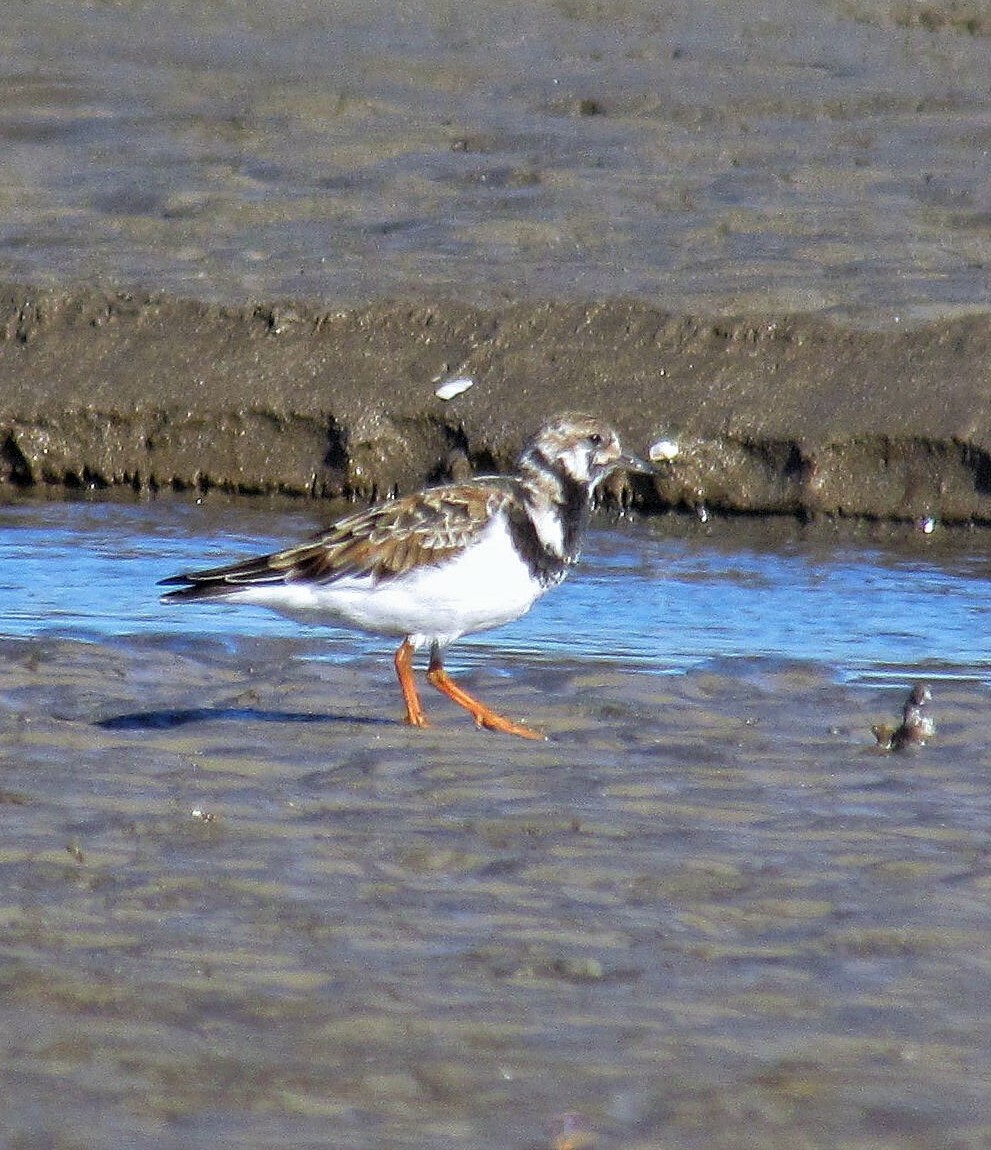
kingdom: Animalia
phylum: Chordata
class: Aves
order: Charadriiformes
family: Scolopacidae
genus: Arenaria
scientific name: Arenaria interpres
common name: Ruddy turnstone
